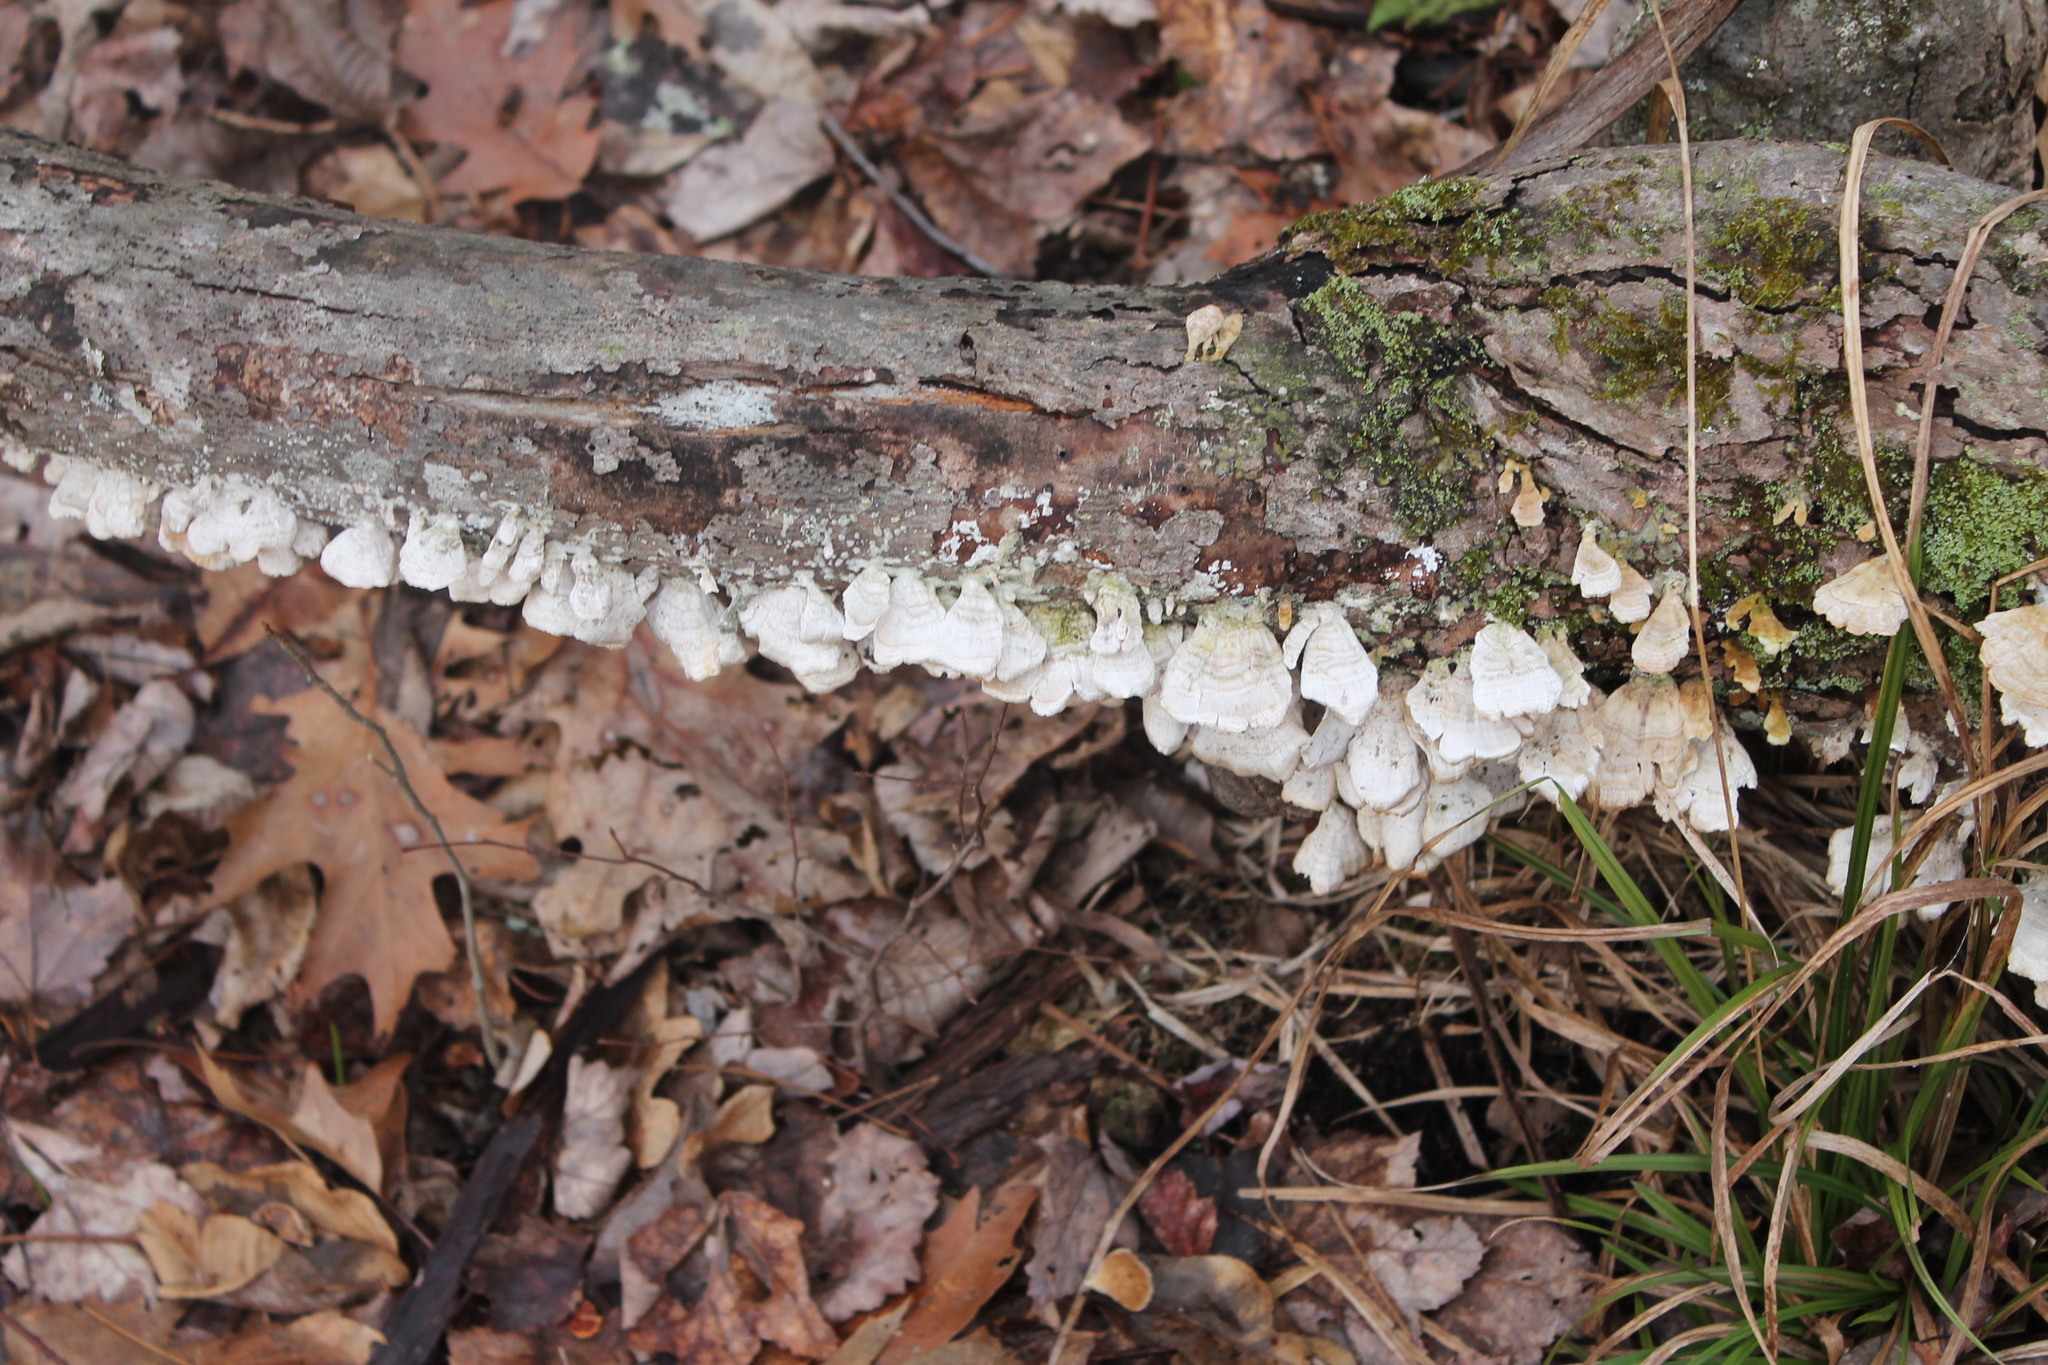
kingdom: Fungi
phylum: Basidiomycota
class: Agaricomycetes
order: Hymenochaetales
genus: Trichaptum
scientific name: Trichaptum biforme
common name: Violet-toothed polypore
